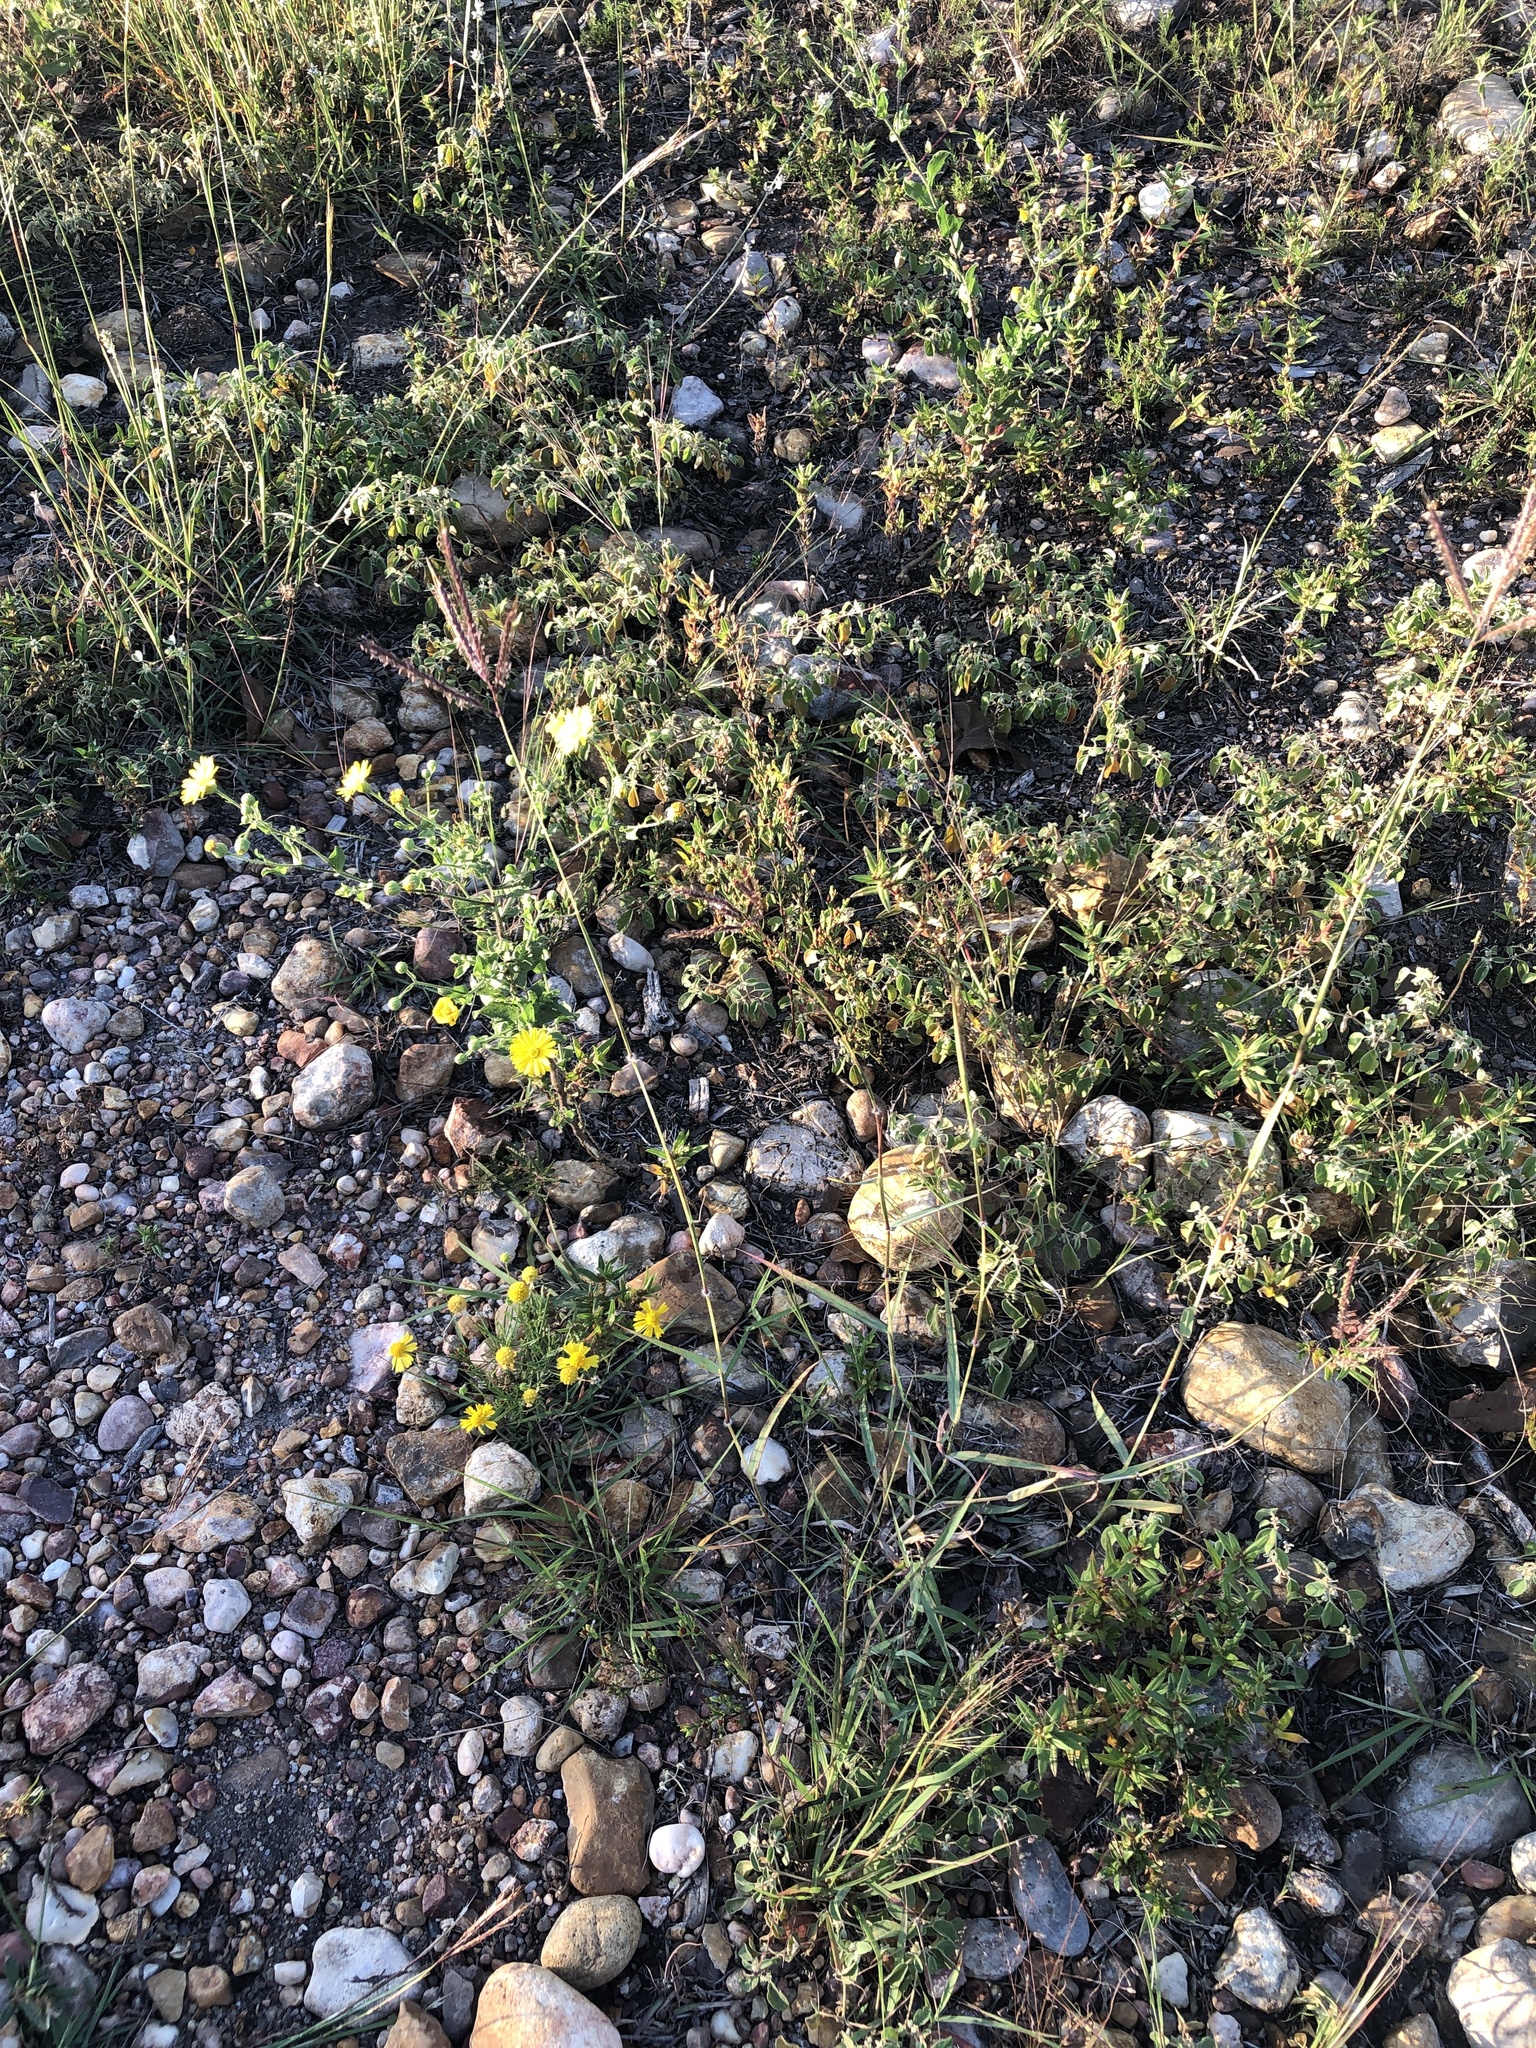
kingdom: Plantae
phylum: Tracheophyta
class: Liliopsida
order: Poales
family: Poaceae
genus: Dichanthium
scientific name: Dichanthium annulatum
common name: Kleberg's bluestem
